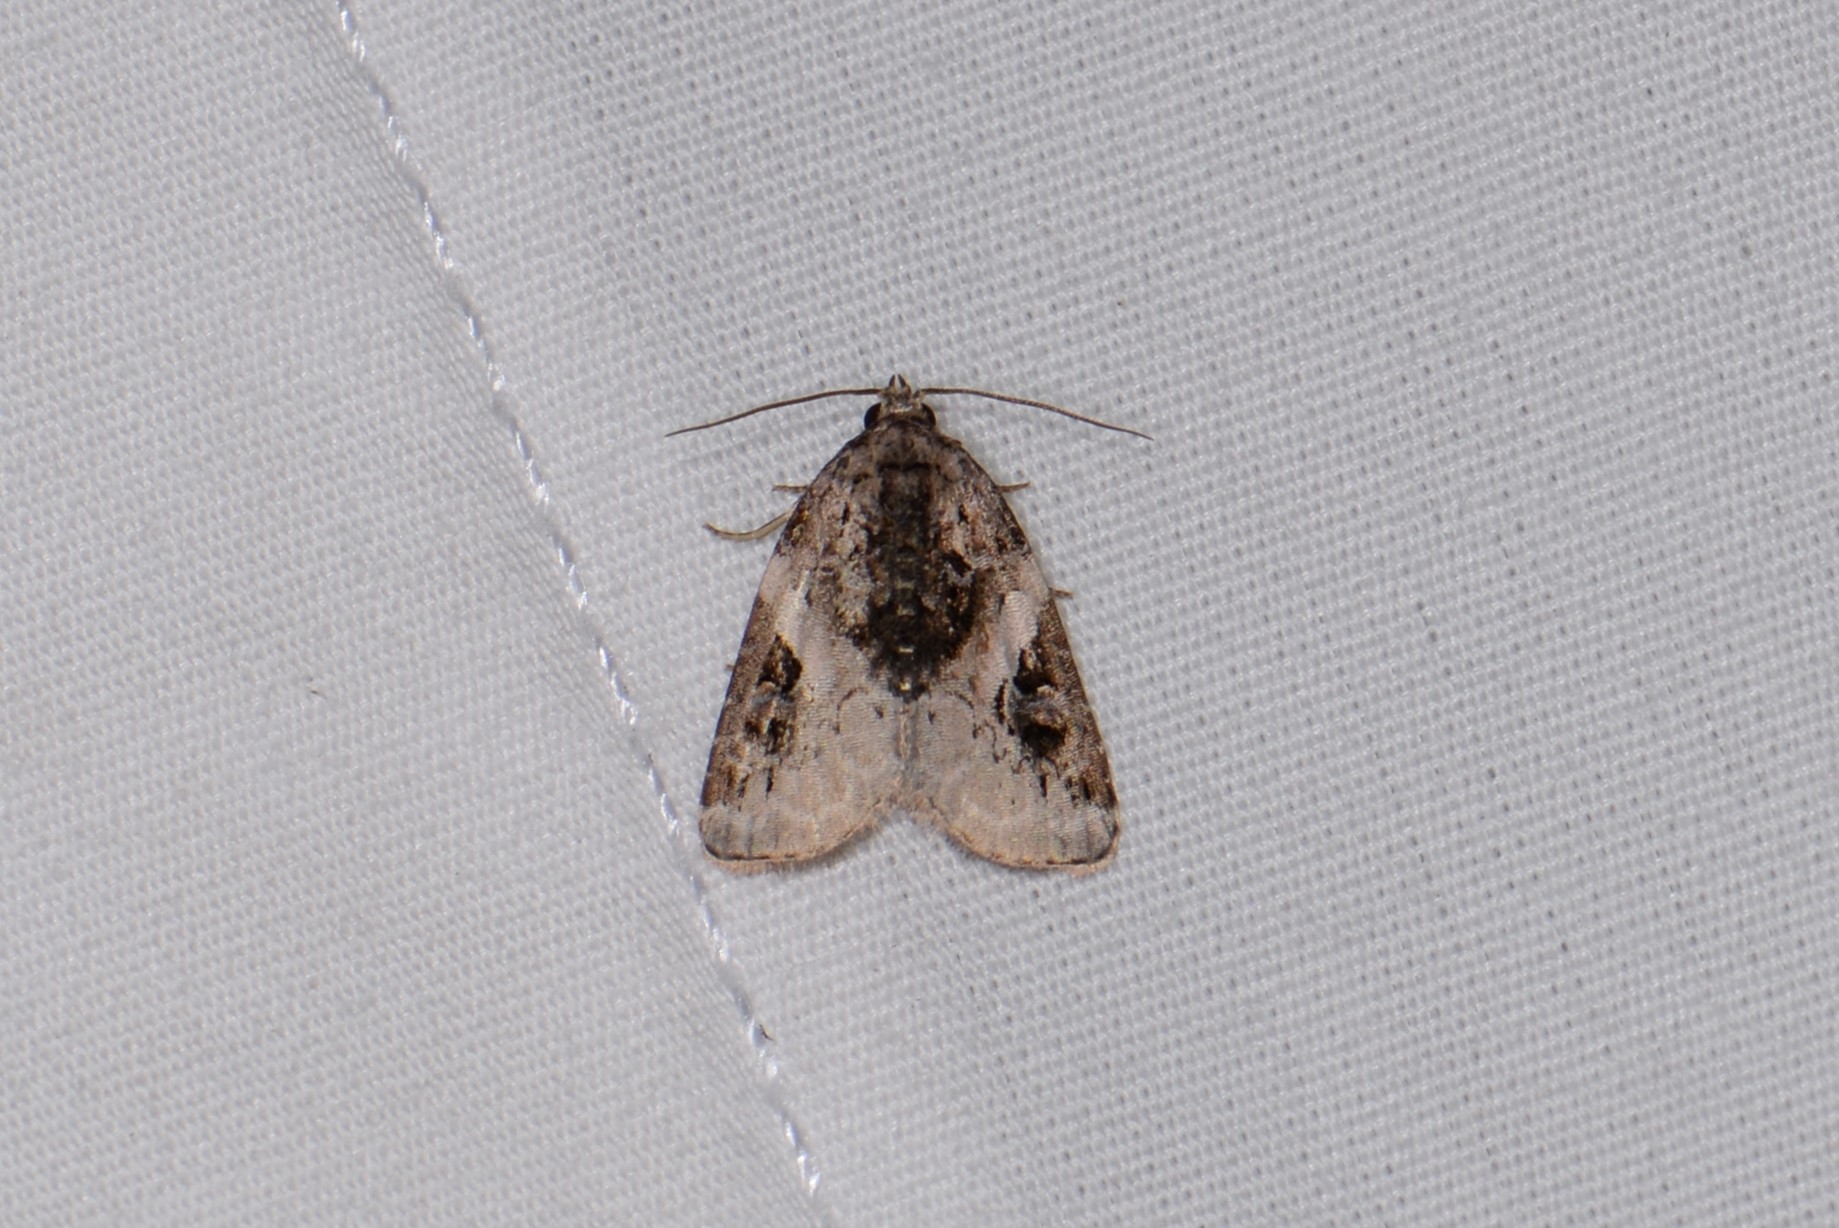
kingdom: Animalia
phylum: Arthropoda
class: Insecta
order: Lepidoptera
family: Noctuidae
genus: Pseudeustrotia
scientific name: Pseudeustrotia carneola
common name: Pink-barred lithacodia moth
